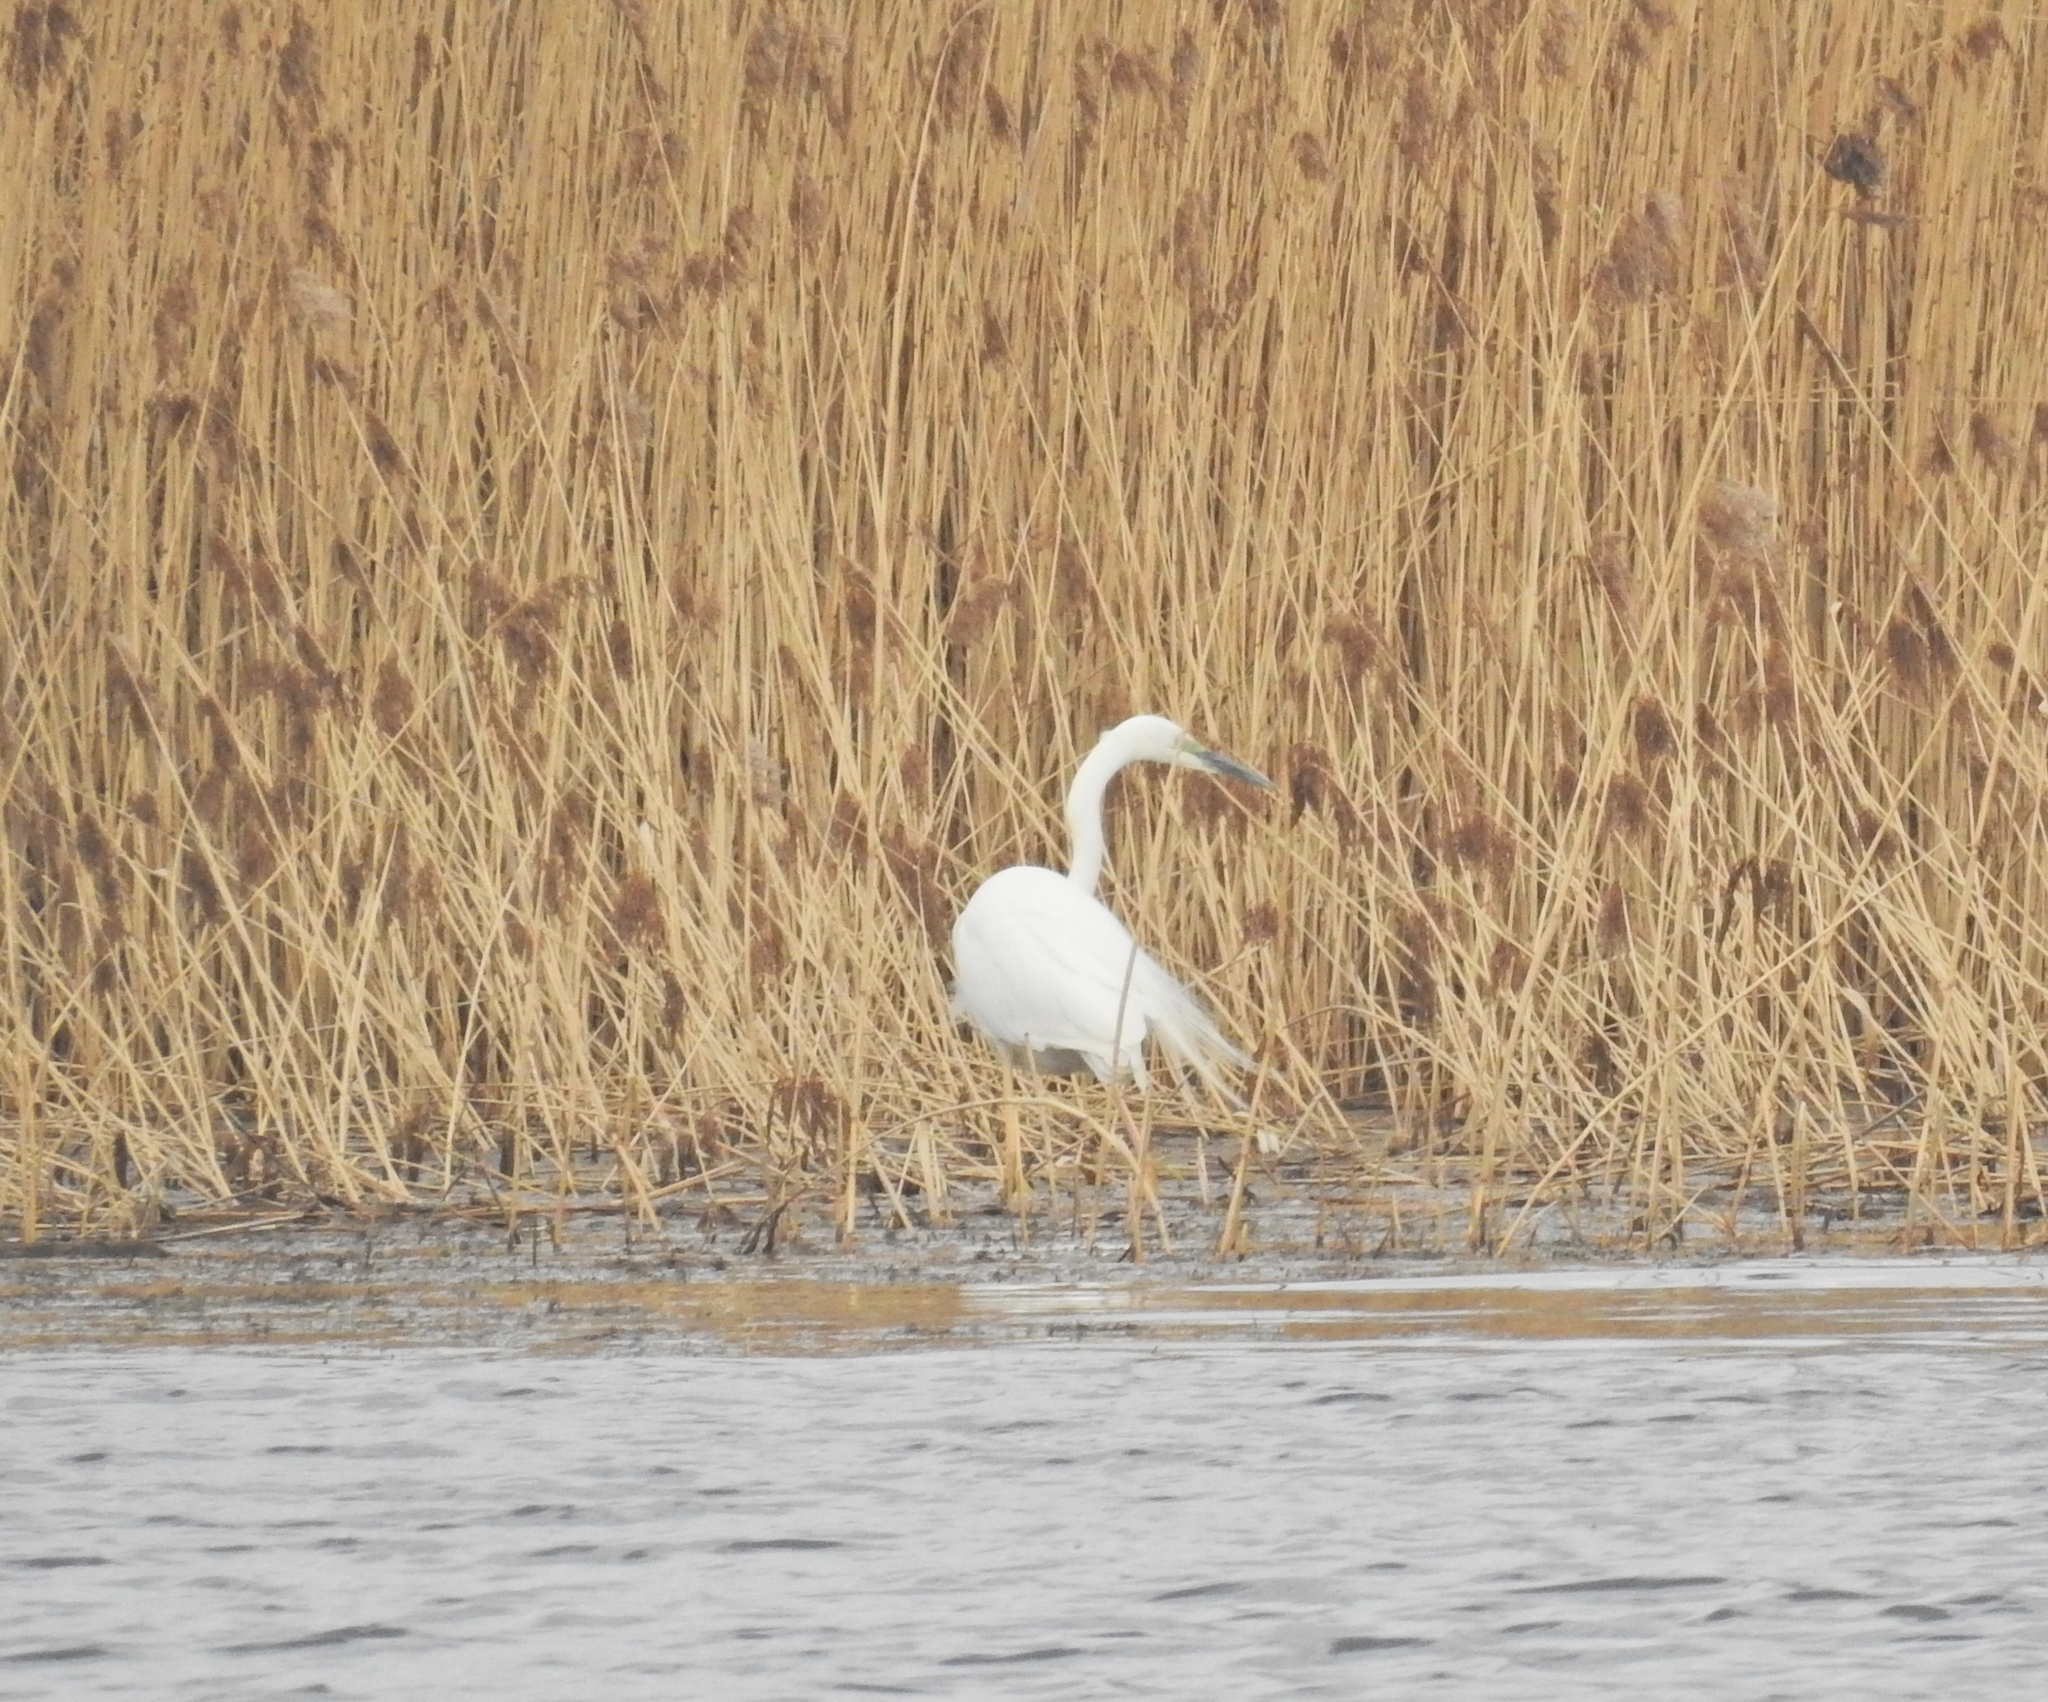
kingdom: Animalia
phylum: Chordata
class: Aves
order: Pelecaniformes
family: Ardeidae
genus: Ardea
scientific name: Ardea alba
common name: Great egret
